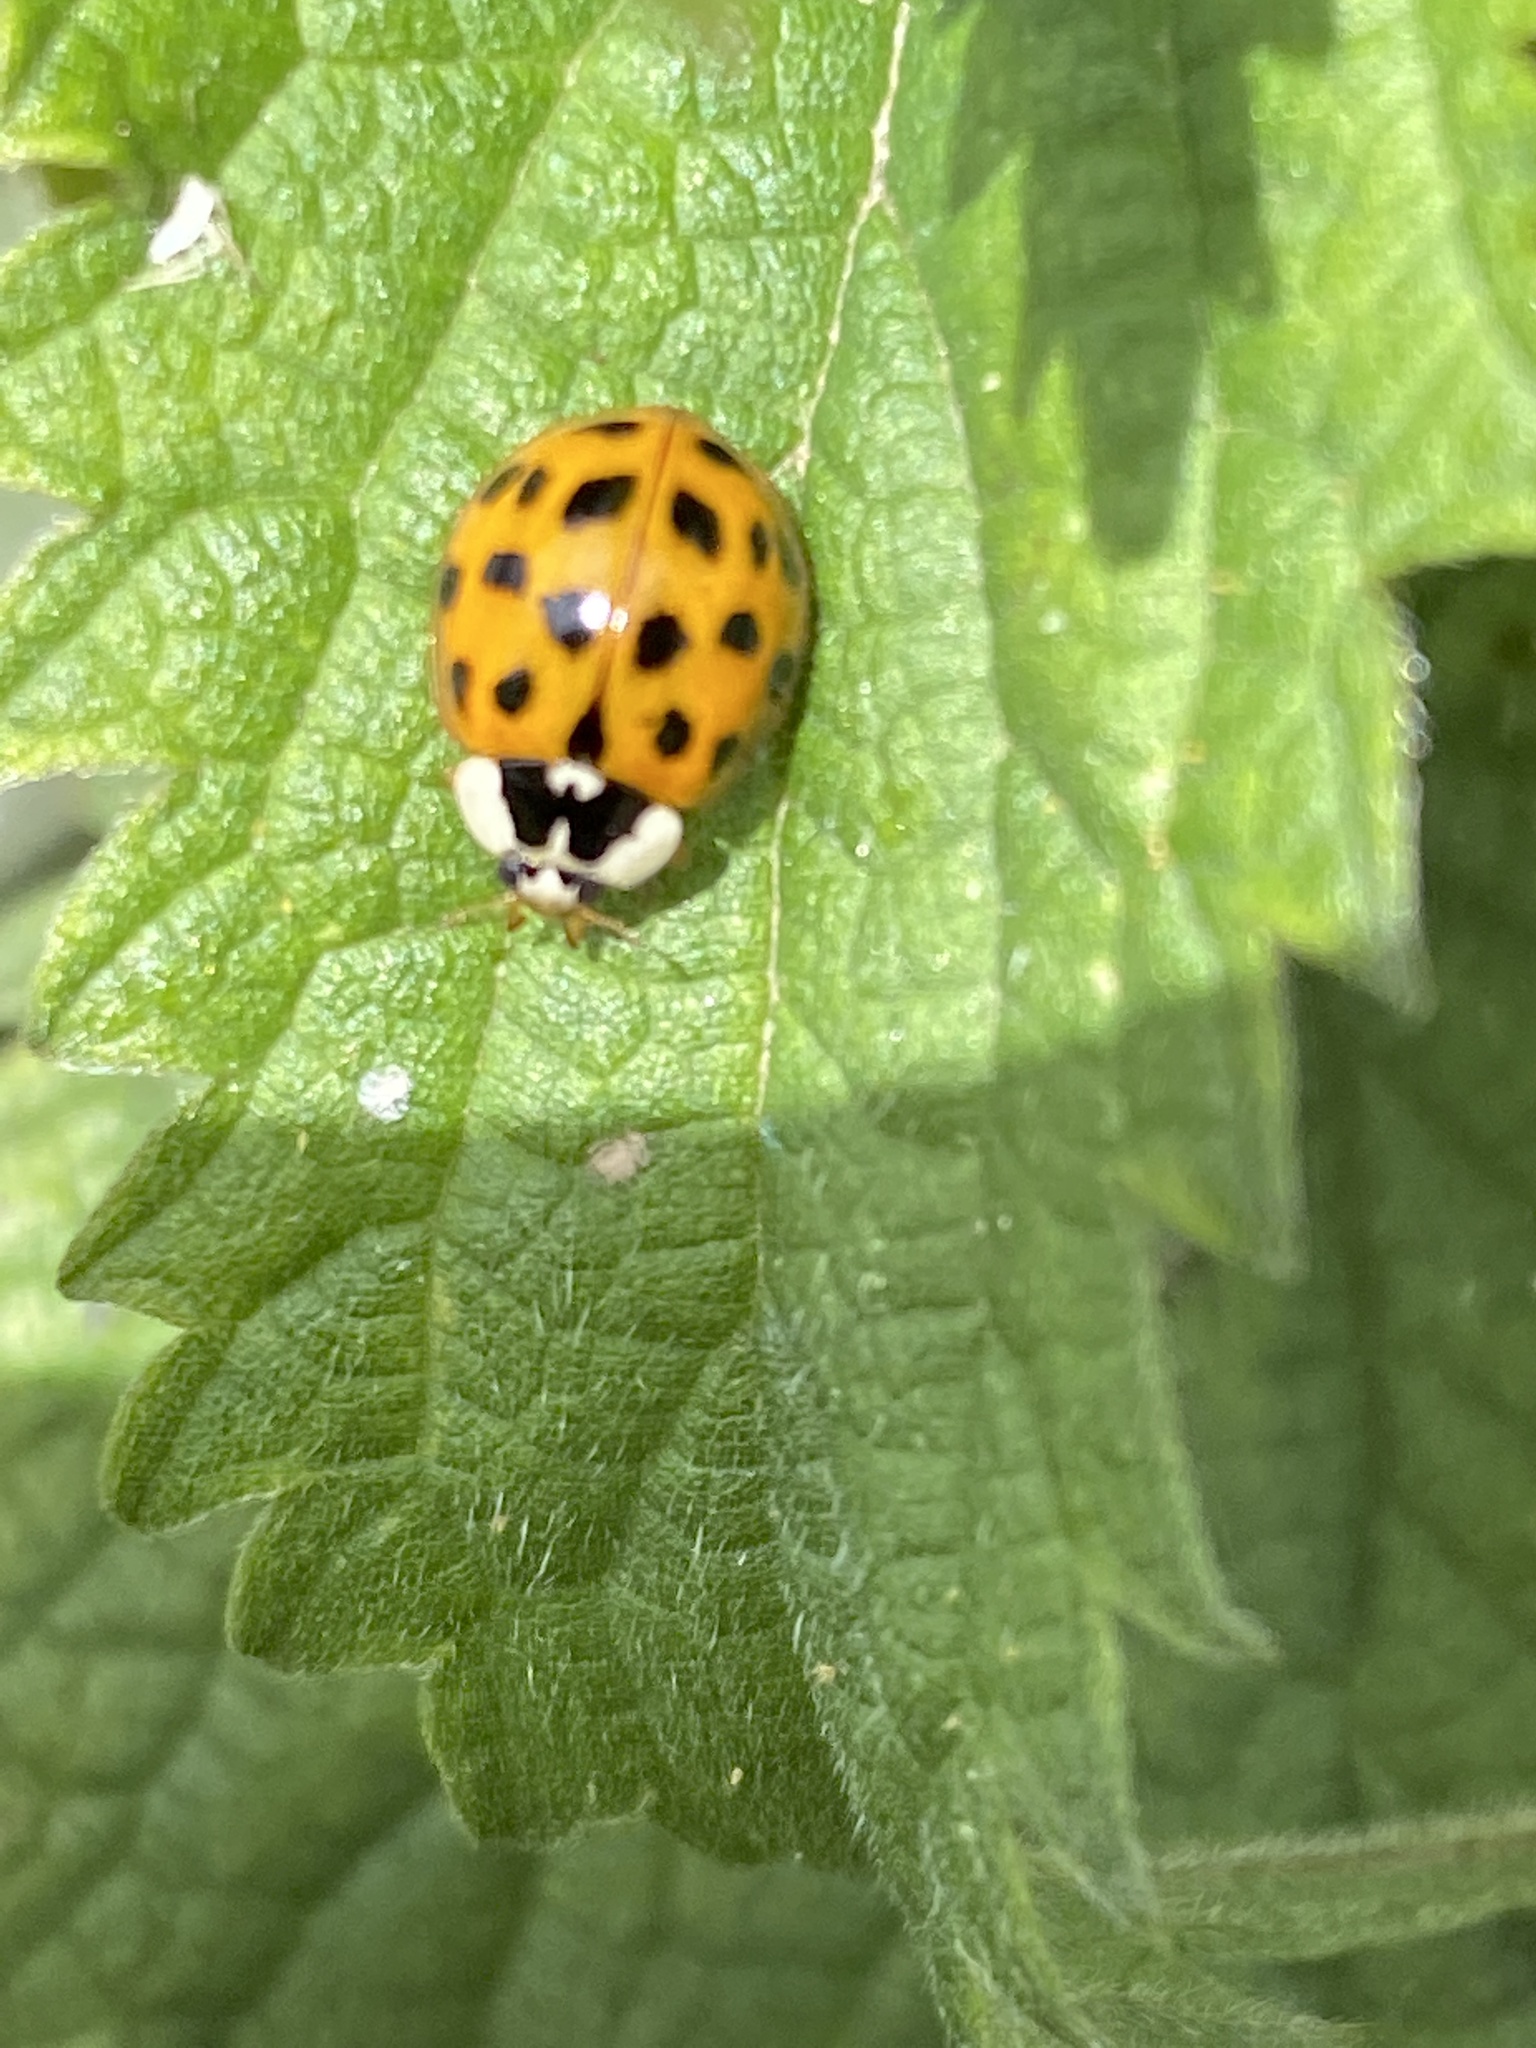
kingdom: Animalia
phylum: Arthropoda
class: Insecta
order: Coleoptera
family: Coccinellidae
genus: Harmonia
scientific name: Harmonia axyridis
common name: Harlequin ladybird
